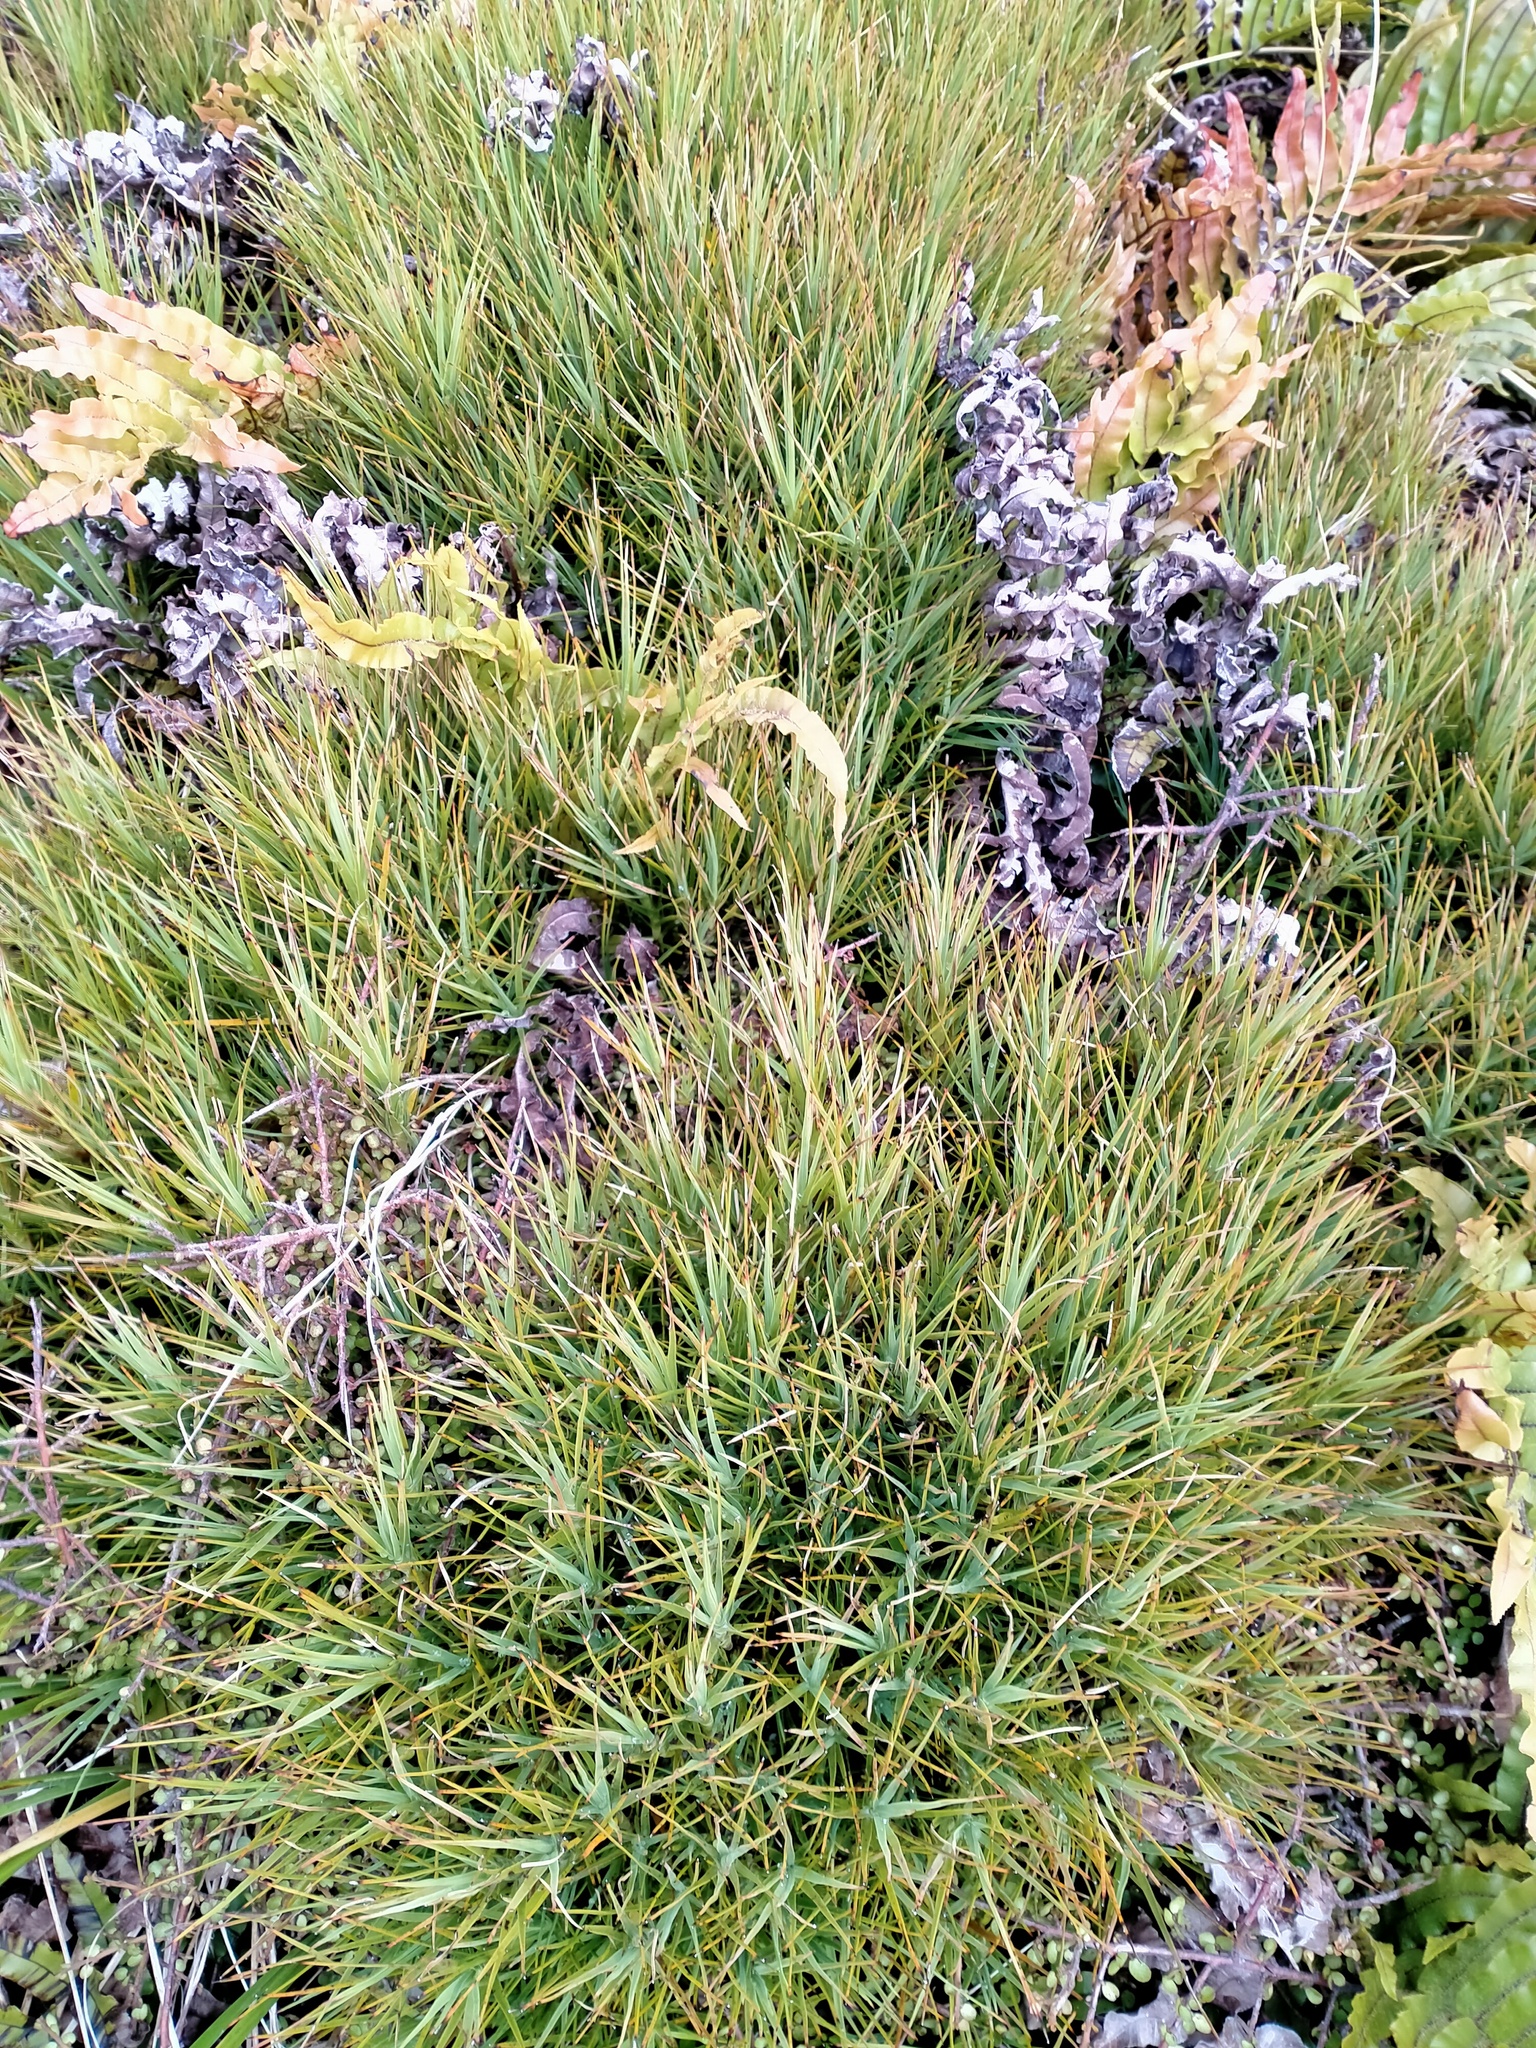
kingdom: Plantae
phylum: Tracheophyta
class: Magnoliopsida
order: Ericales
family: Ericaceae
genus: Dracophyllum
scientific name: Dracophyllum longifolium
